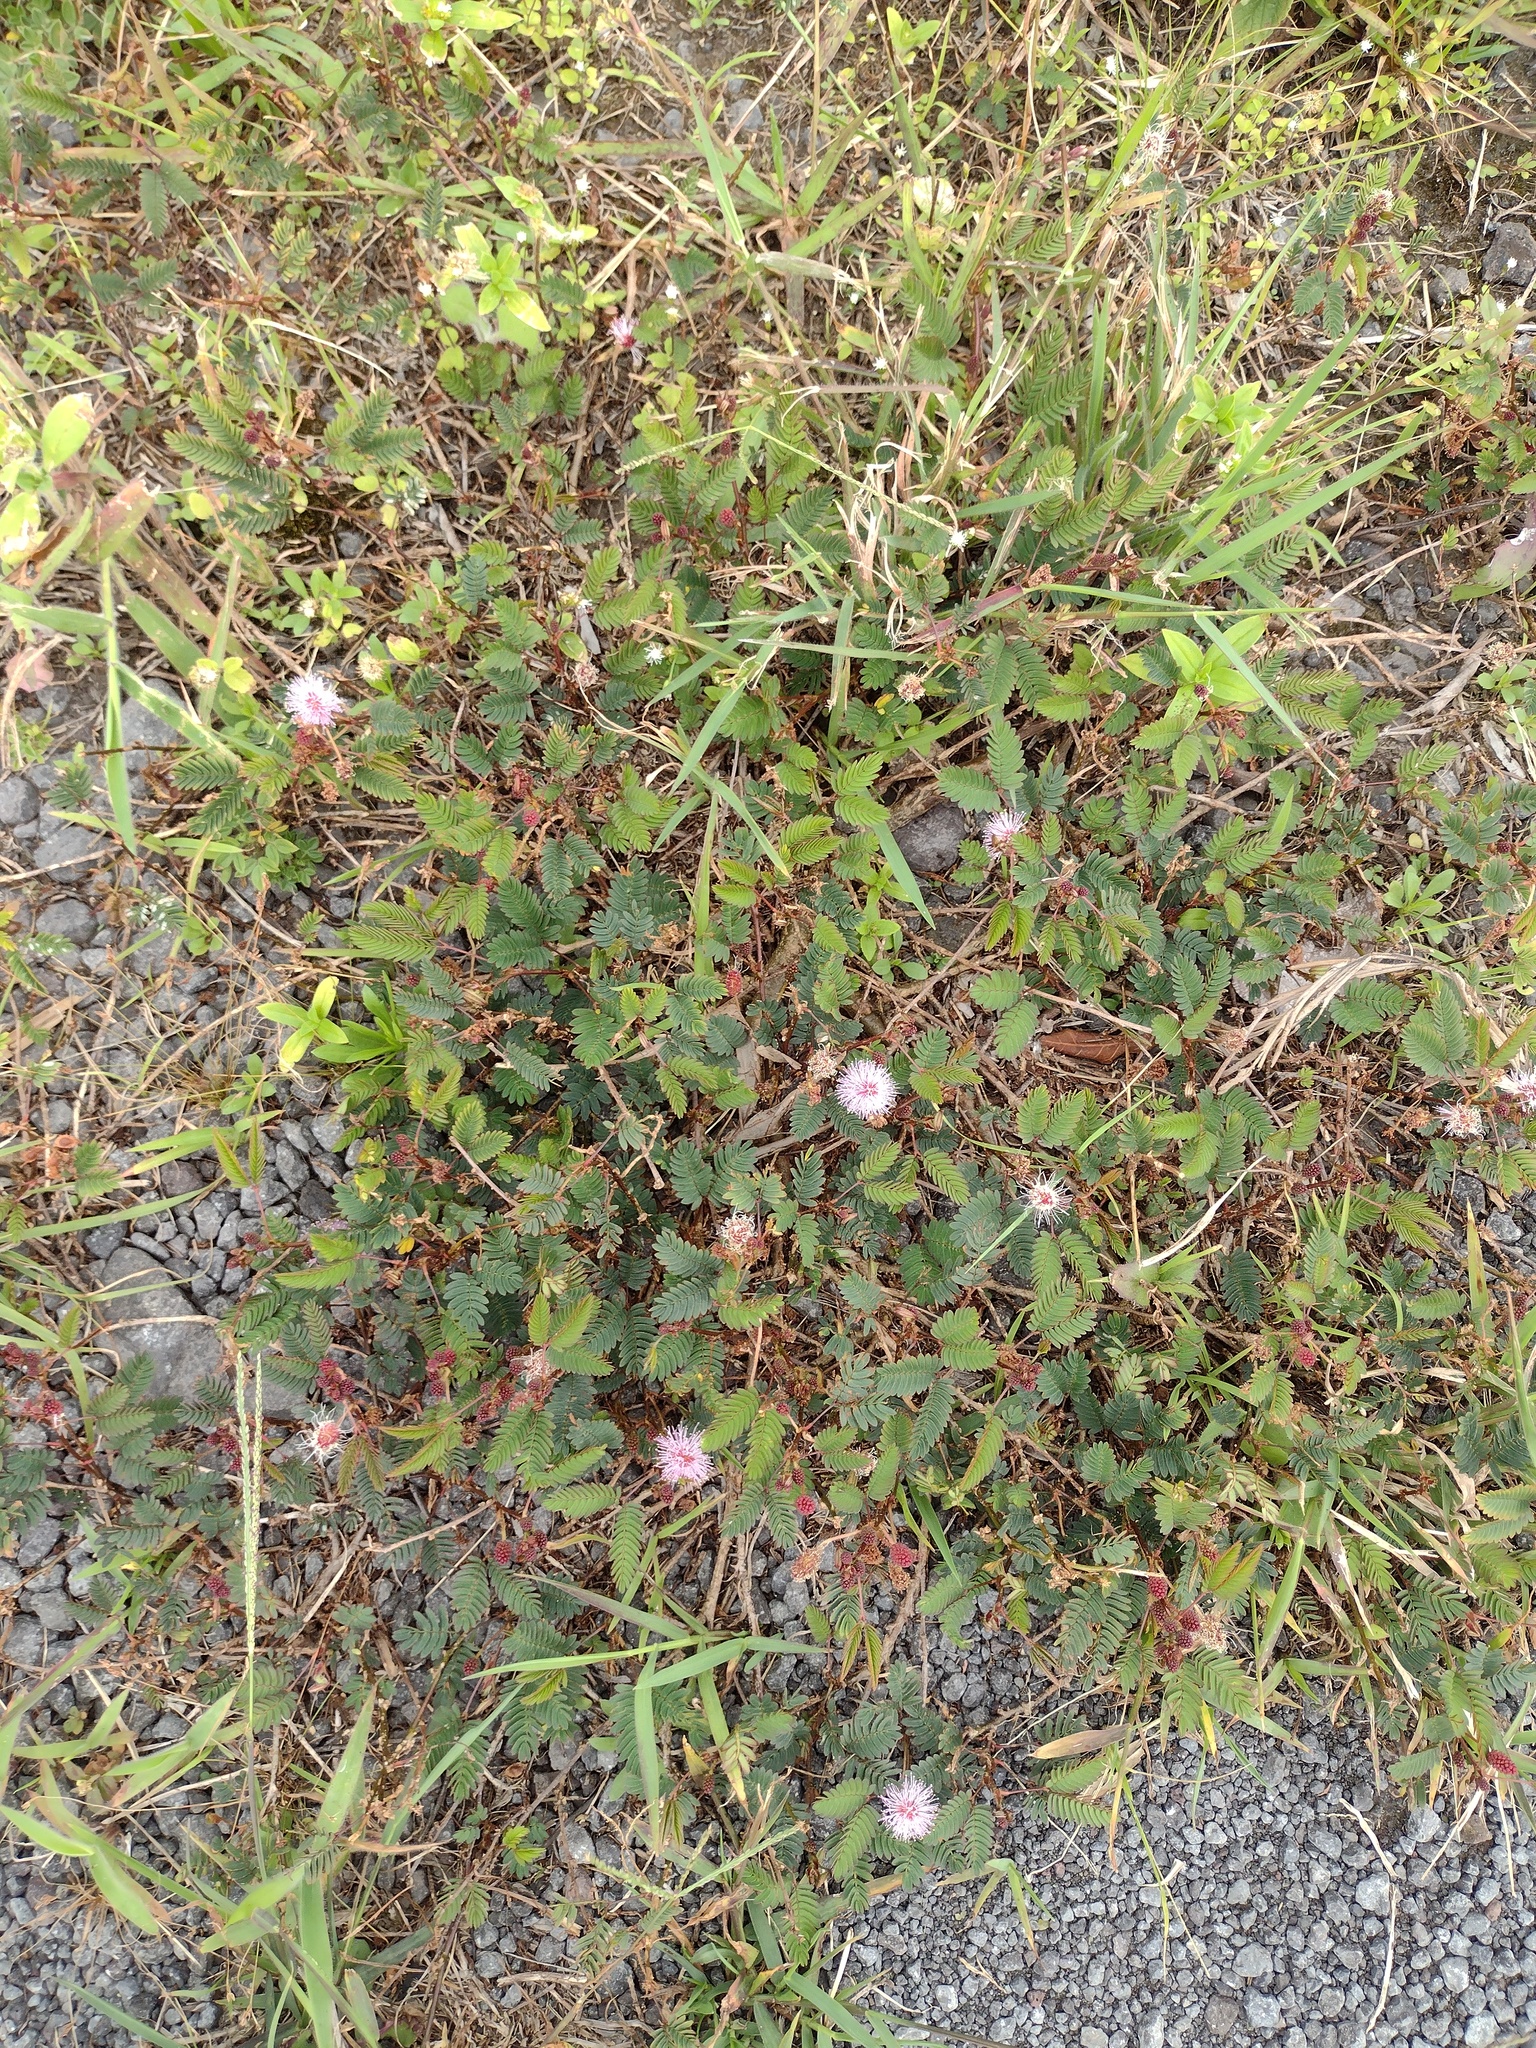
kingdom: Plantae
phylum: Tracheophyta
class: Magnoliopsida
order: Fabales
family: Fabaceae
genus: Mimosa
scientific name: Mimosa pudica
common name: Sensitive plant
